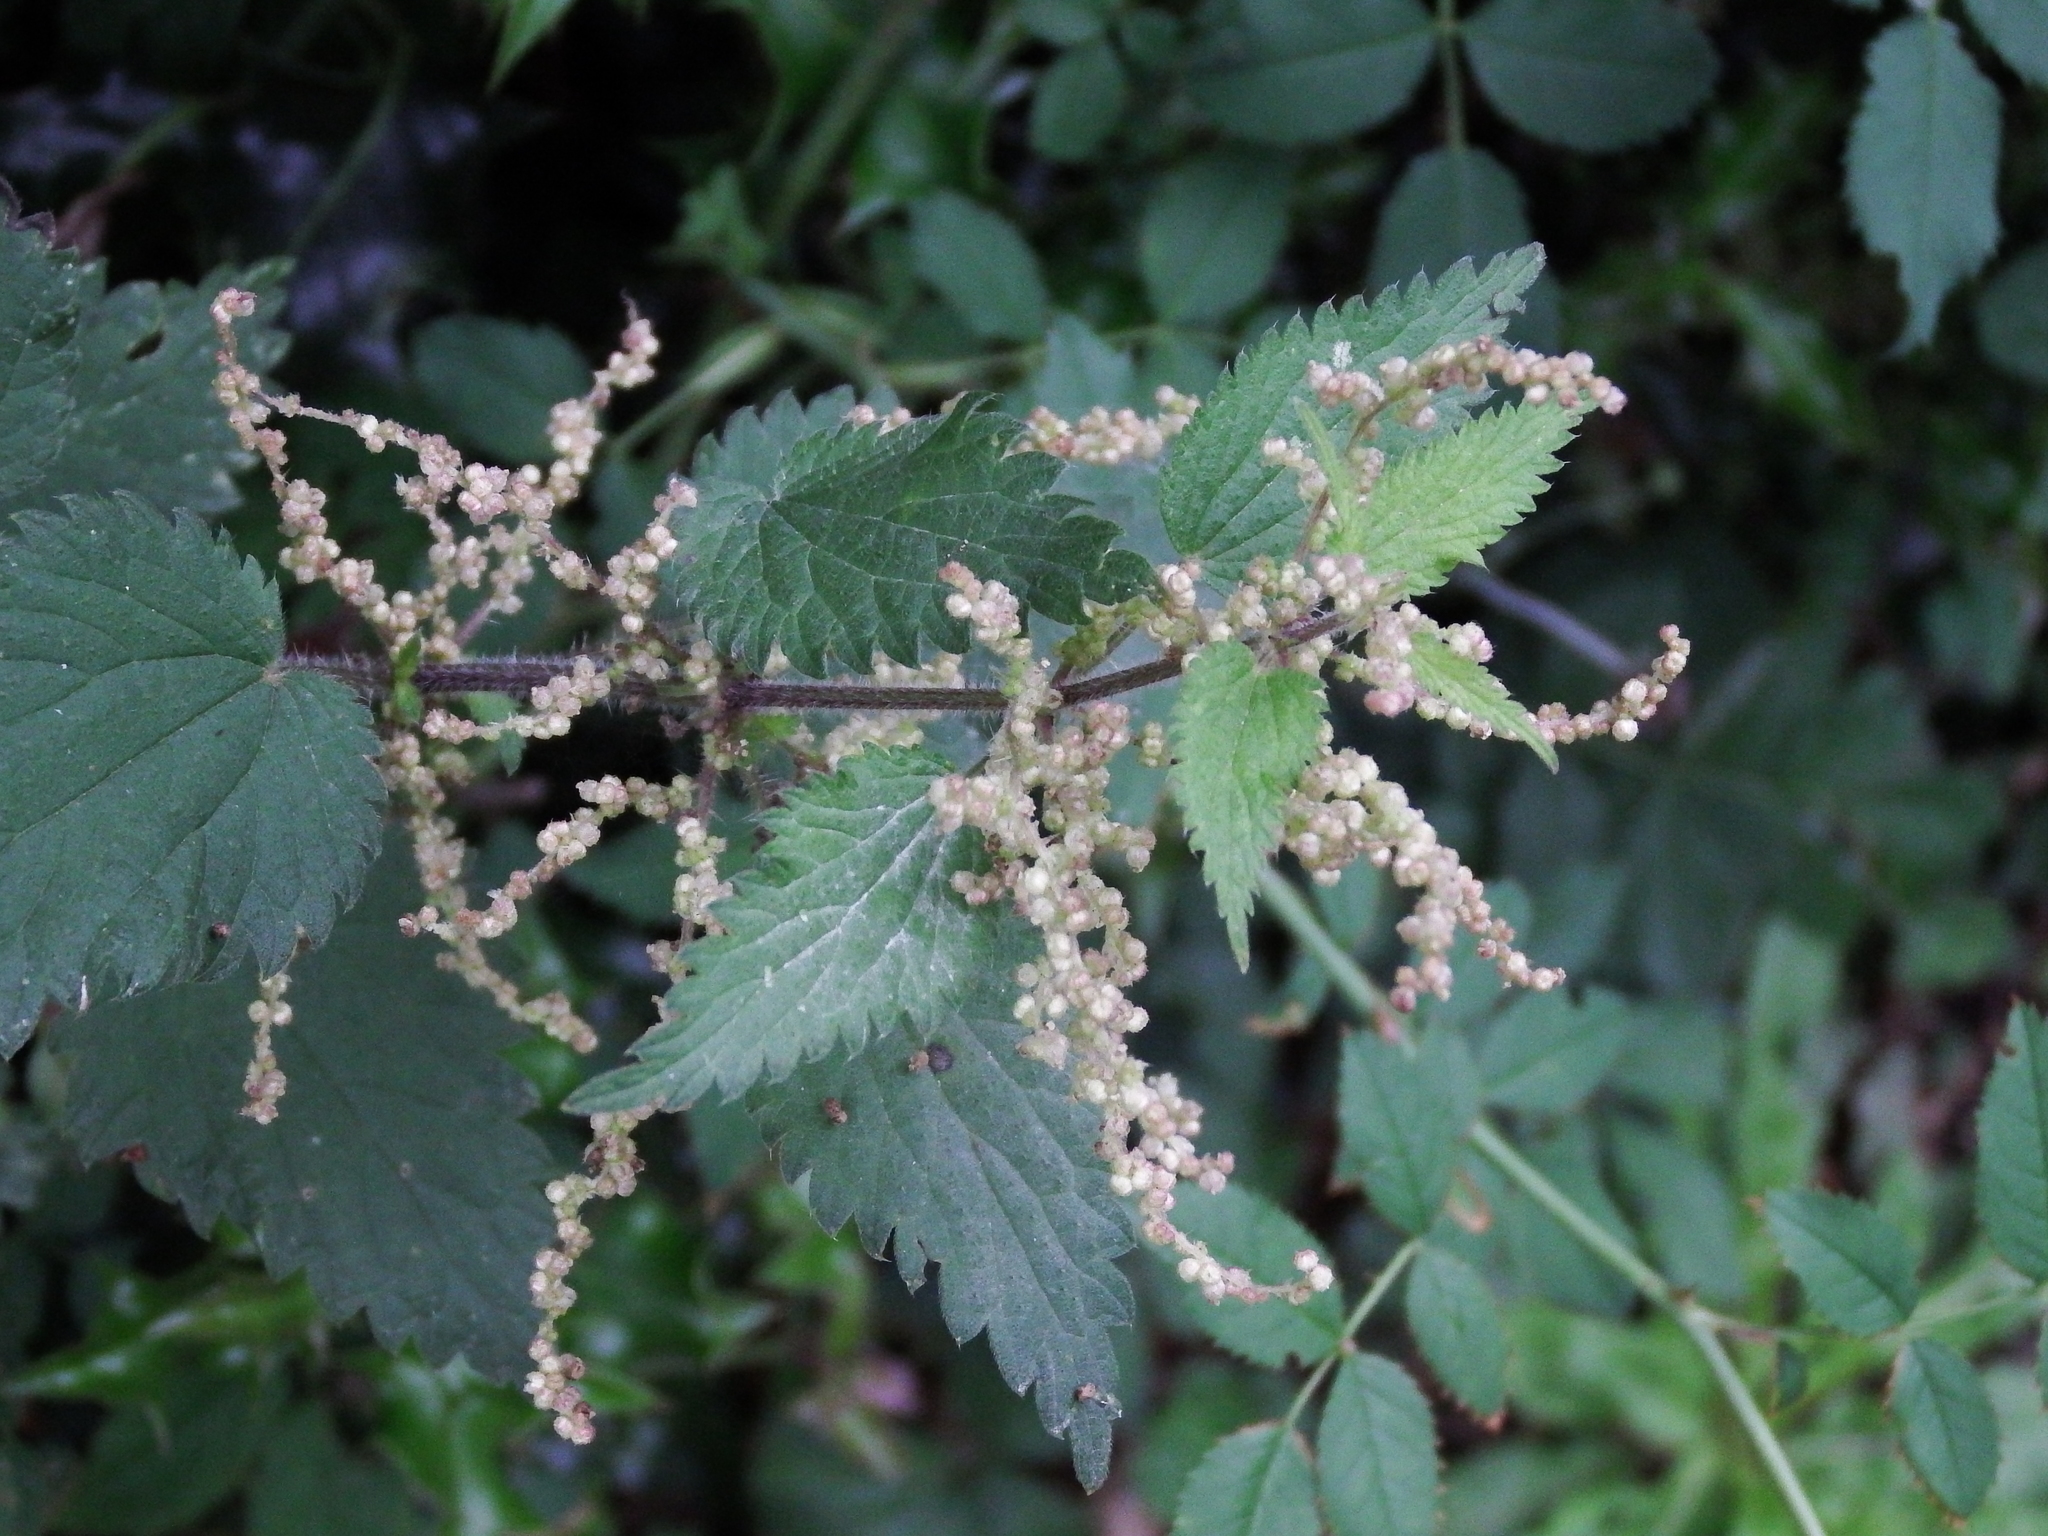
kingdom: Plantae
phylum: Tracheophyta
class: Magnoliopsida
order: Rosales
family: Urticaceae
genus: Urtica
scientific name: Urtica dioica
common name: Common nettle
